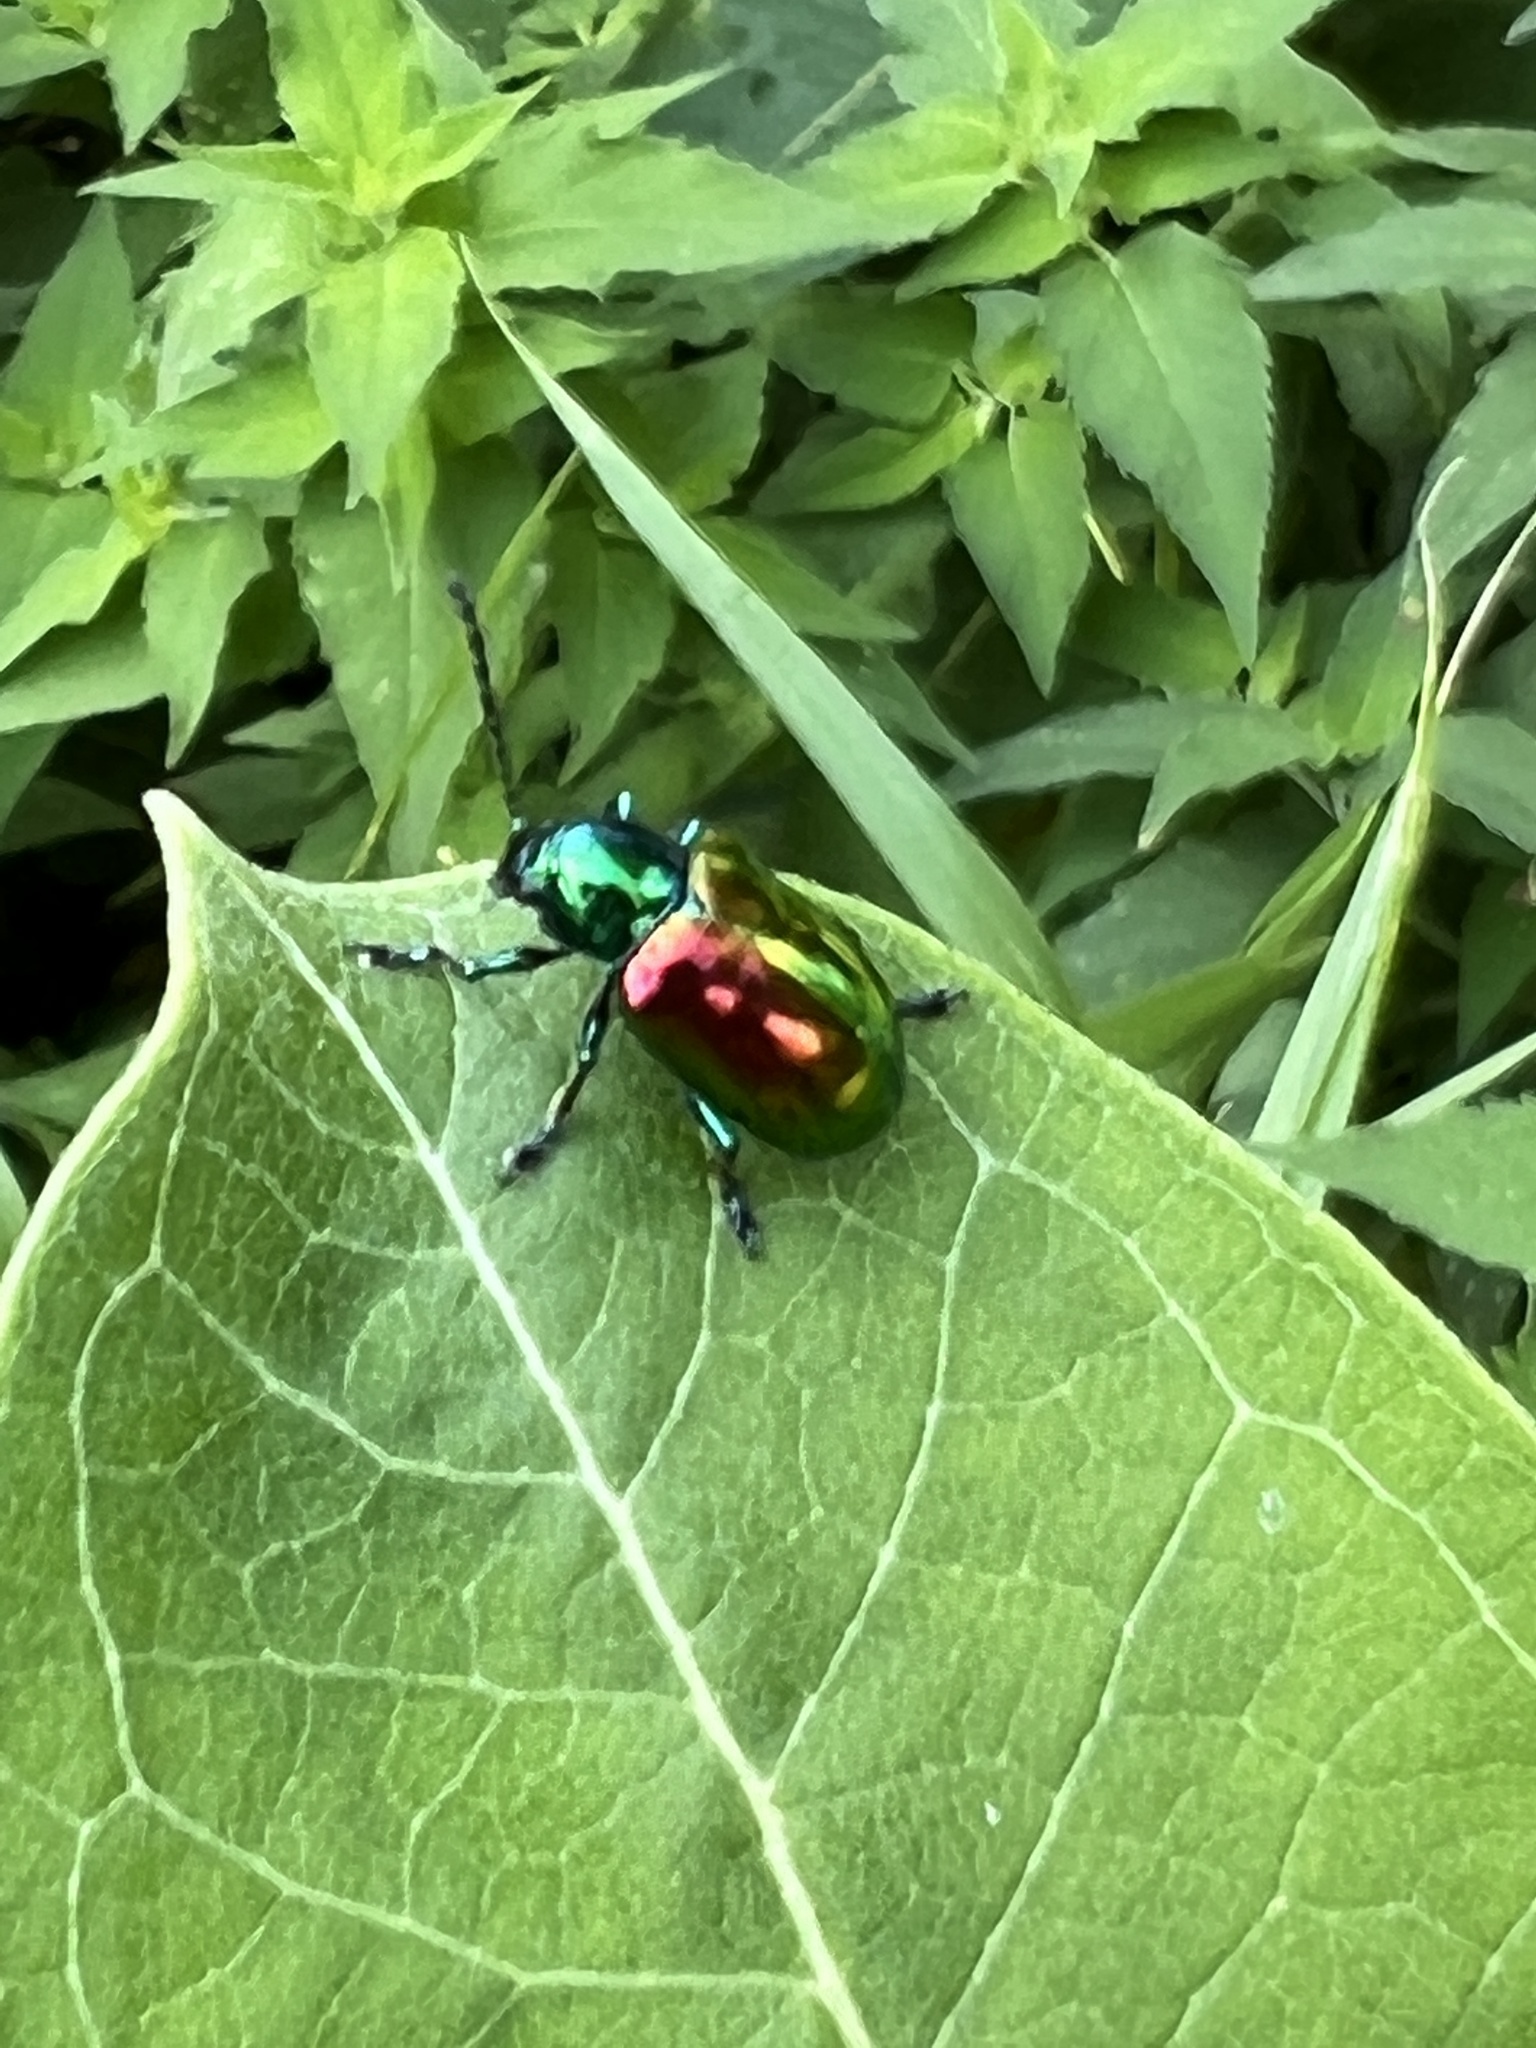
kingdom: Animalia
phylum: Arthropoda
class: Insecta
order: Coleoptera
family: Chrysomelidae
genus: Chrysochus
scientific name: Chrysochus auratus
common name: Dogbane leaf beetle
